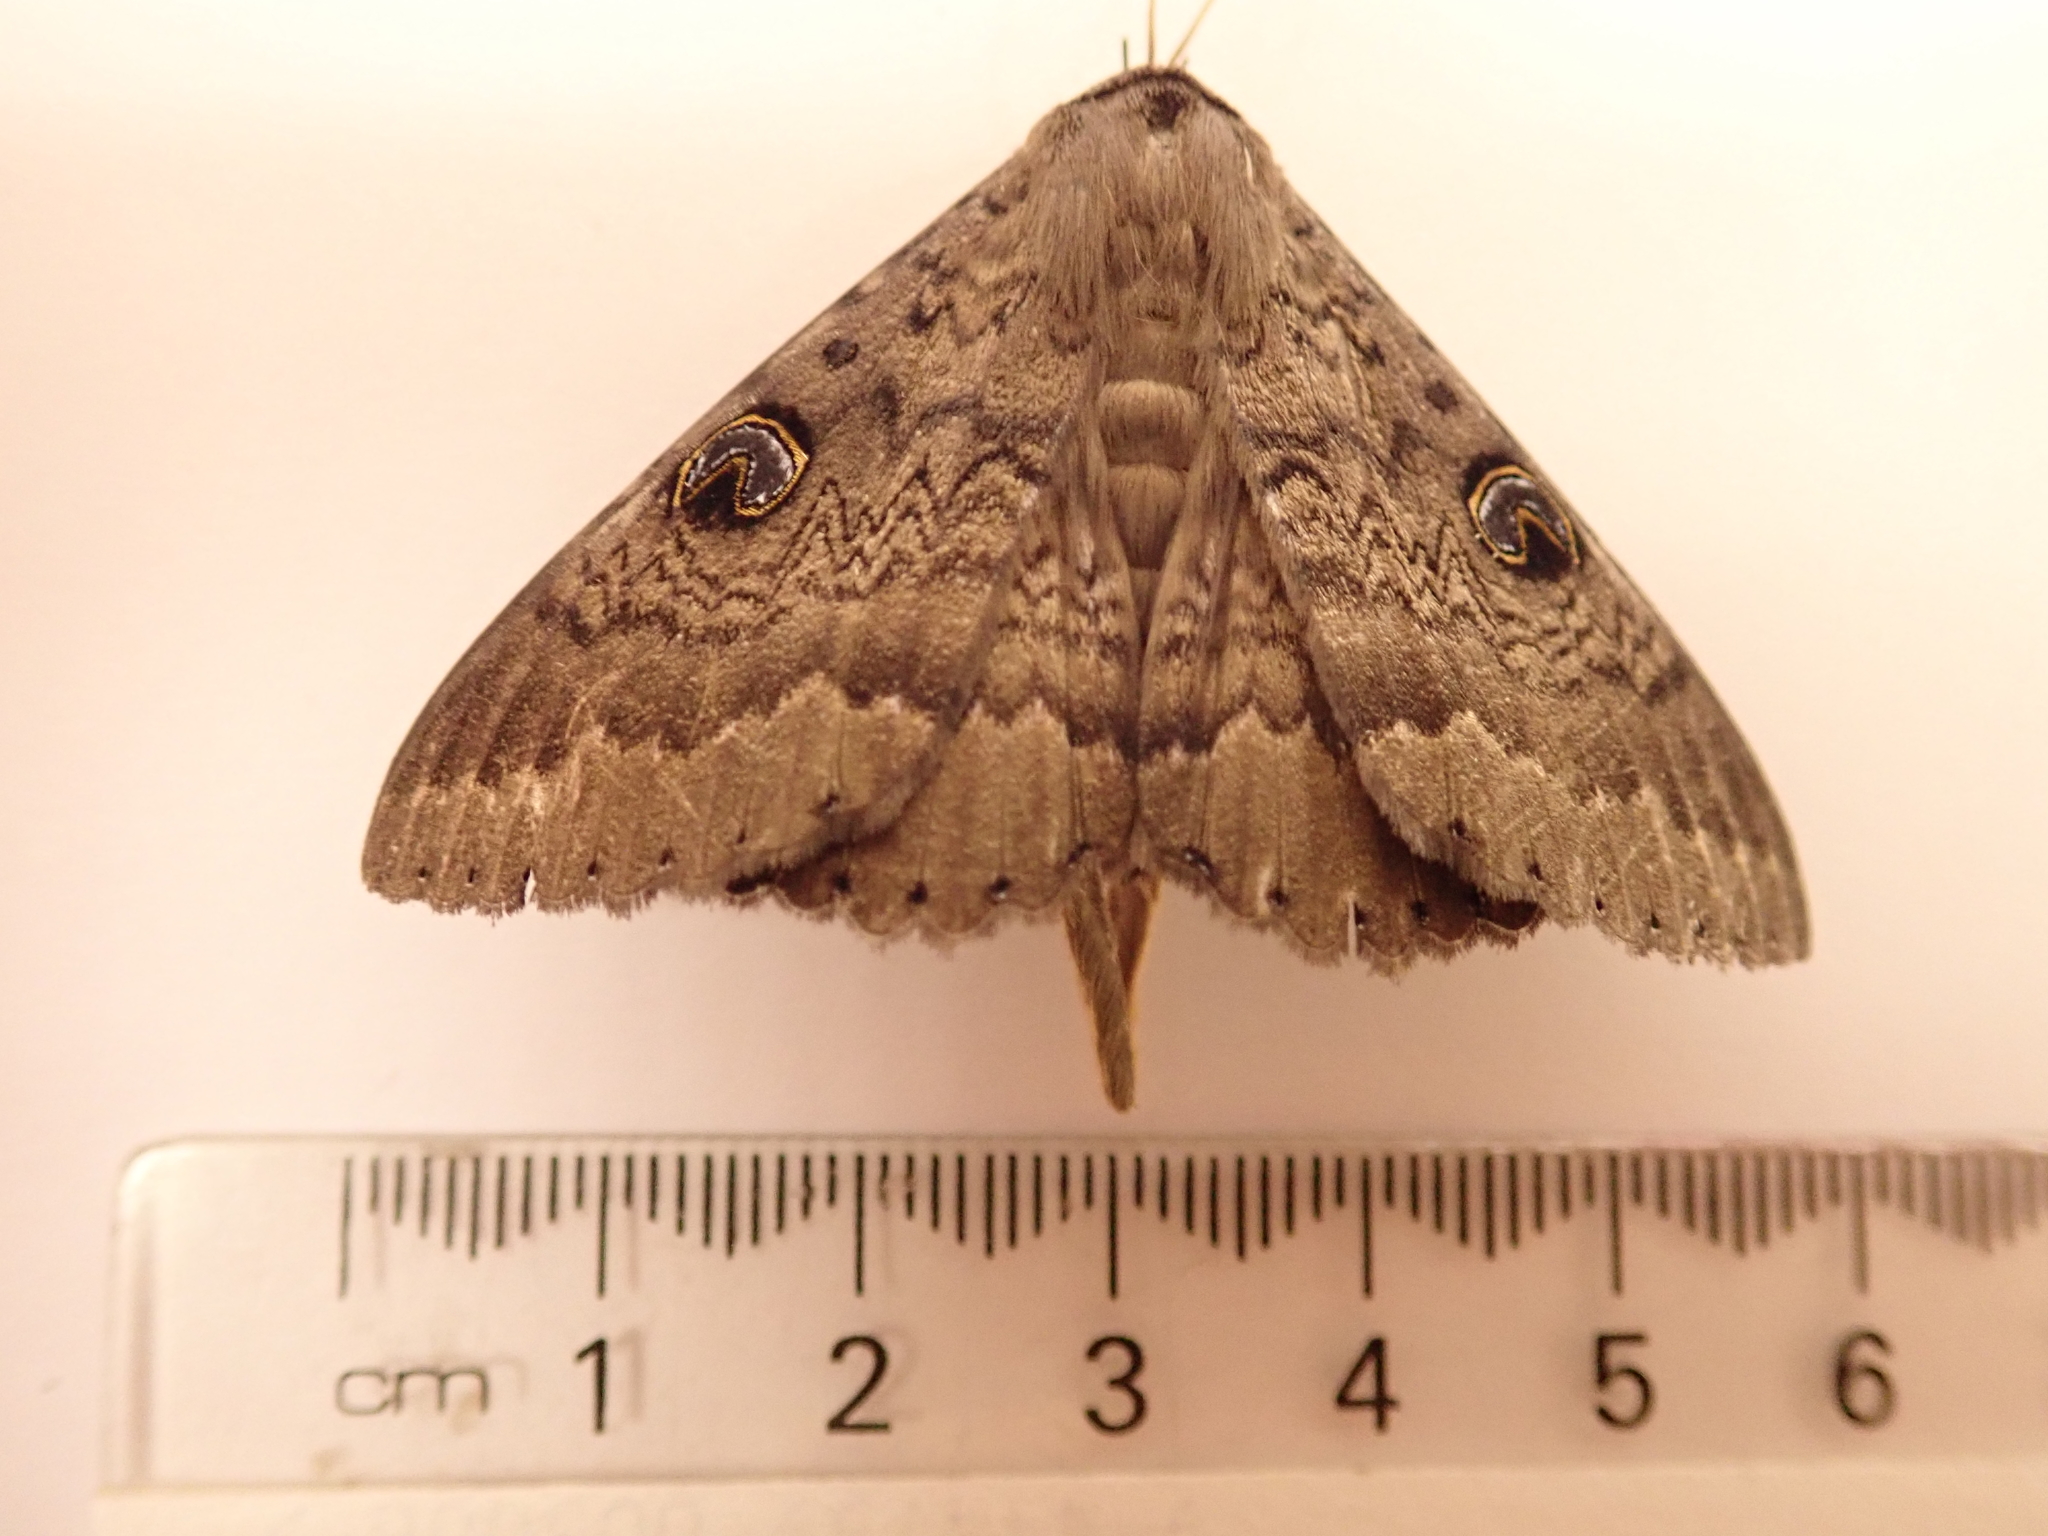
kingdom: Animalia
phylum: Arthropoda
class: Insecta
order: Lepidoptera
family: Erebidae
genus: Dasypodia
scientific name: Dasypodia cymatodes
